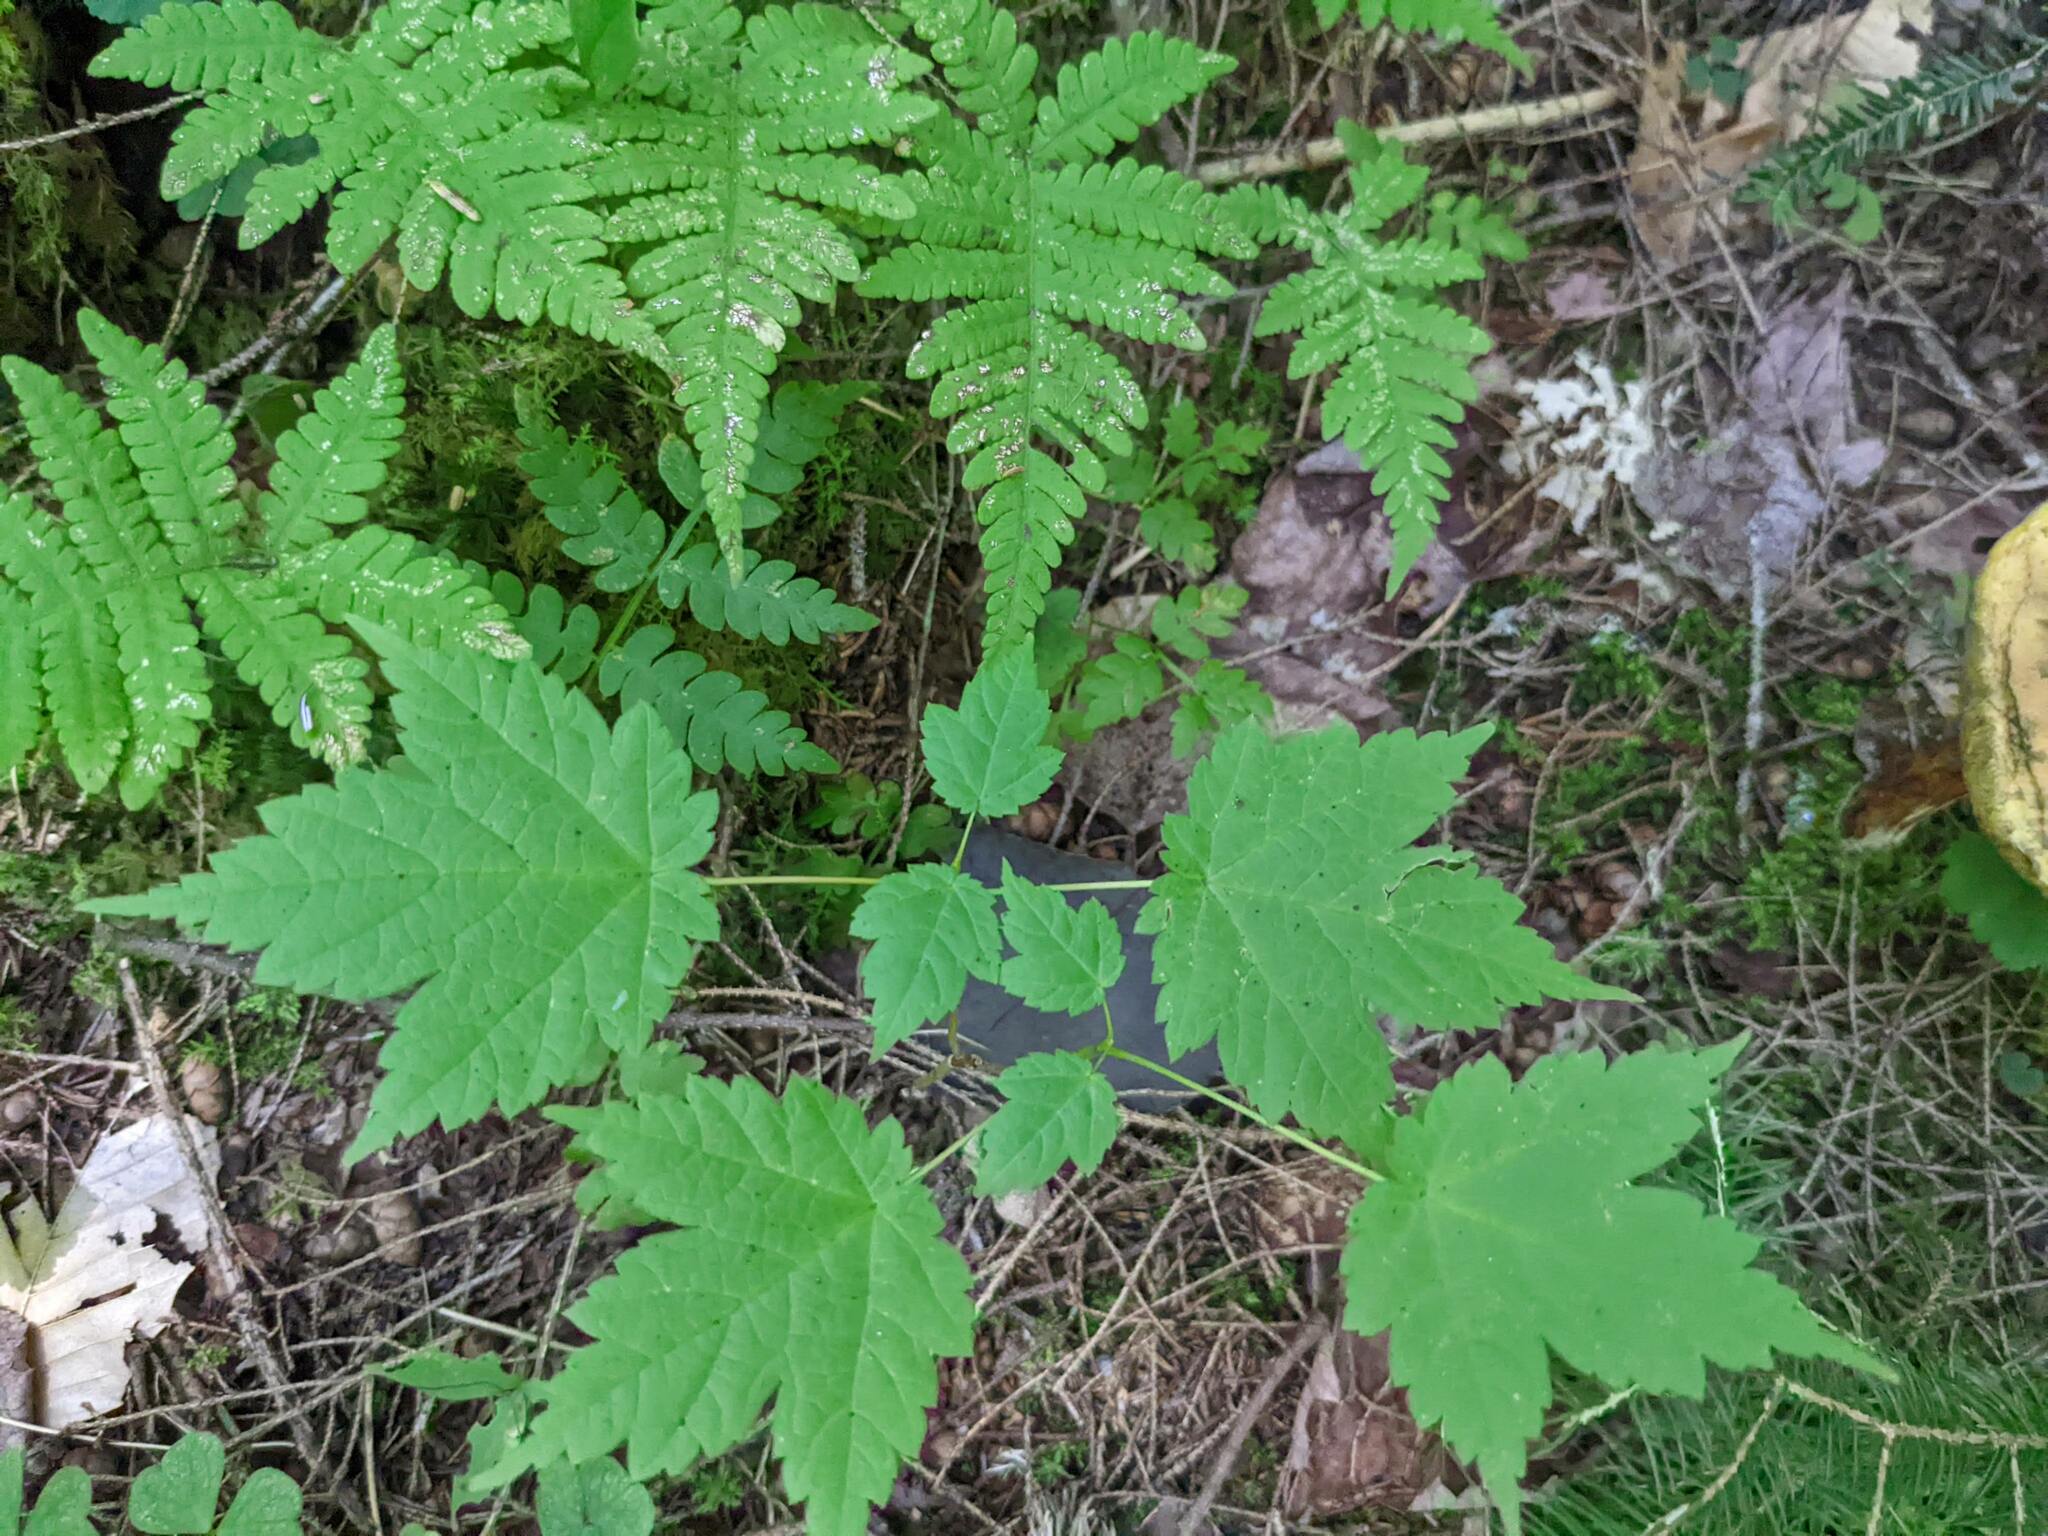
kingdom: Plantae
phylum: Tracheophyta
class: Magnoliopsida
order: Sapindales
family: Sapindaceae
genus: Acer
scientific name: Acer spicatum
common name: Mountain maple
